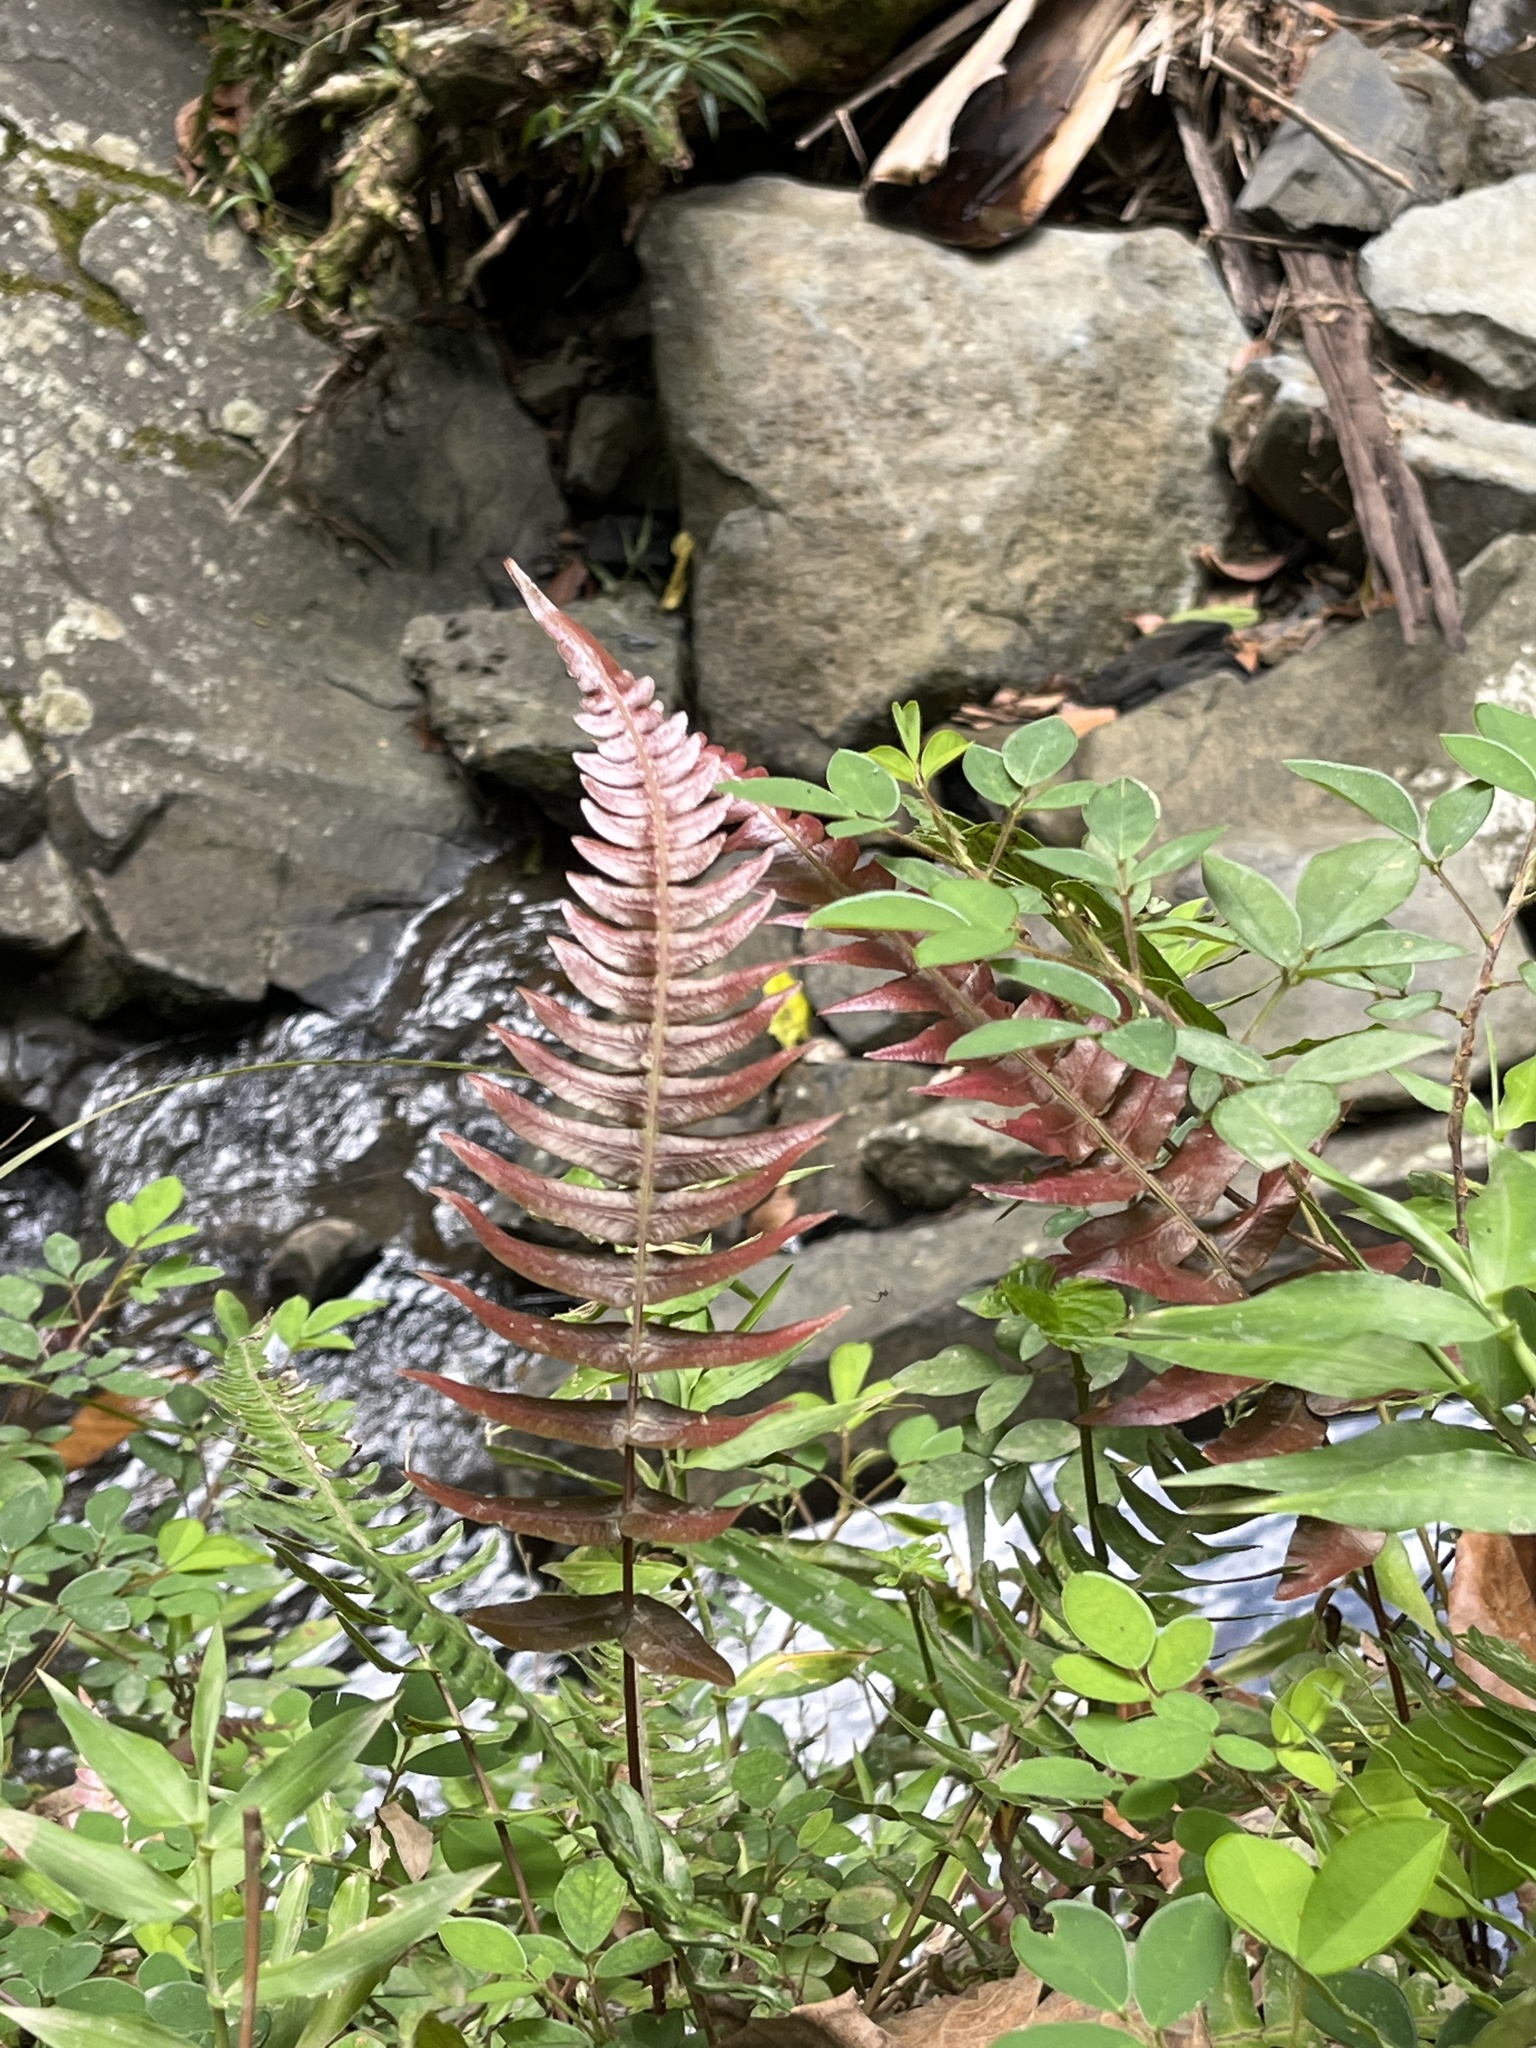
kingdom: Plantae
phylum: Tracheophyta
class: Polypodiopsida
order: Polypodiales
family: Blechnaceae
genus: Blechnum
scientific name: Blechnum occidentale
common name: Hammock fern
